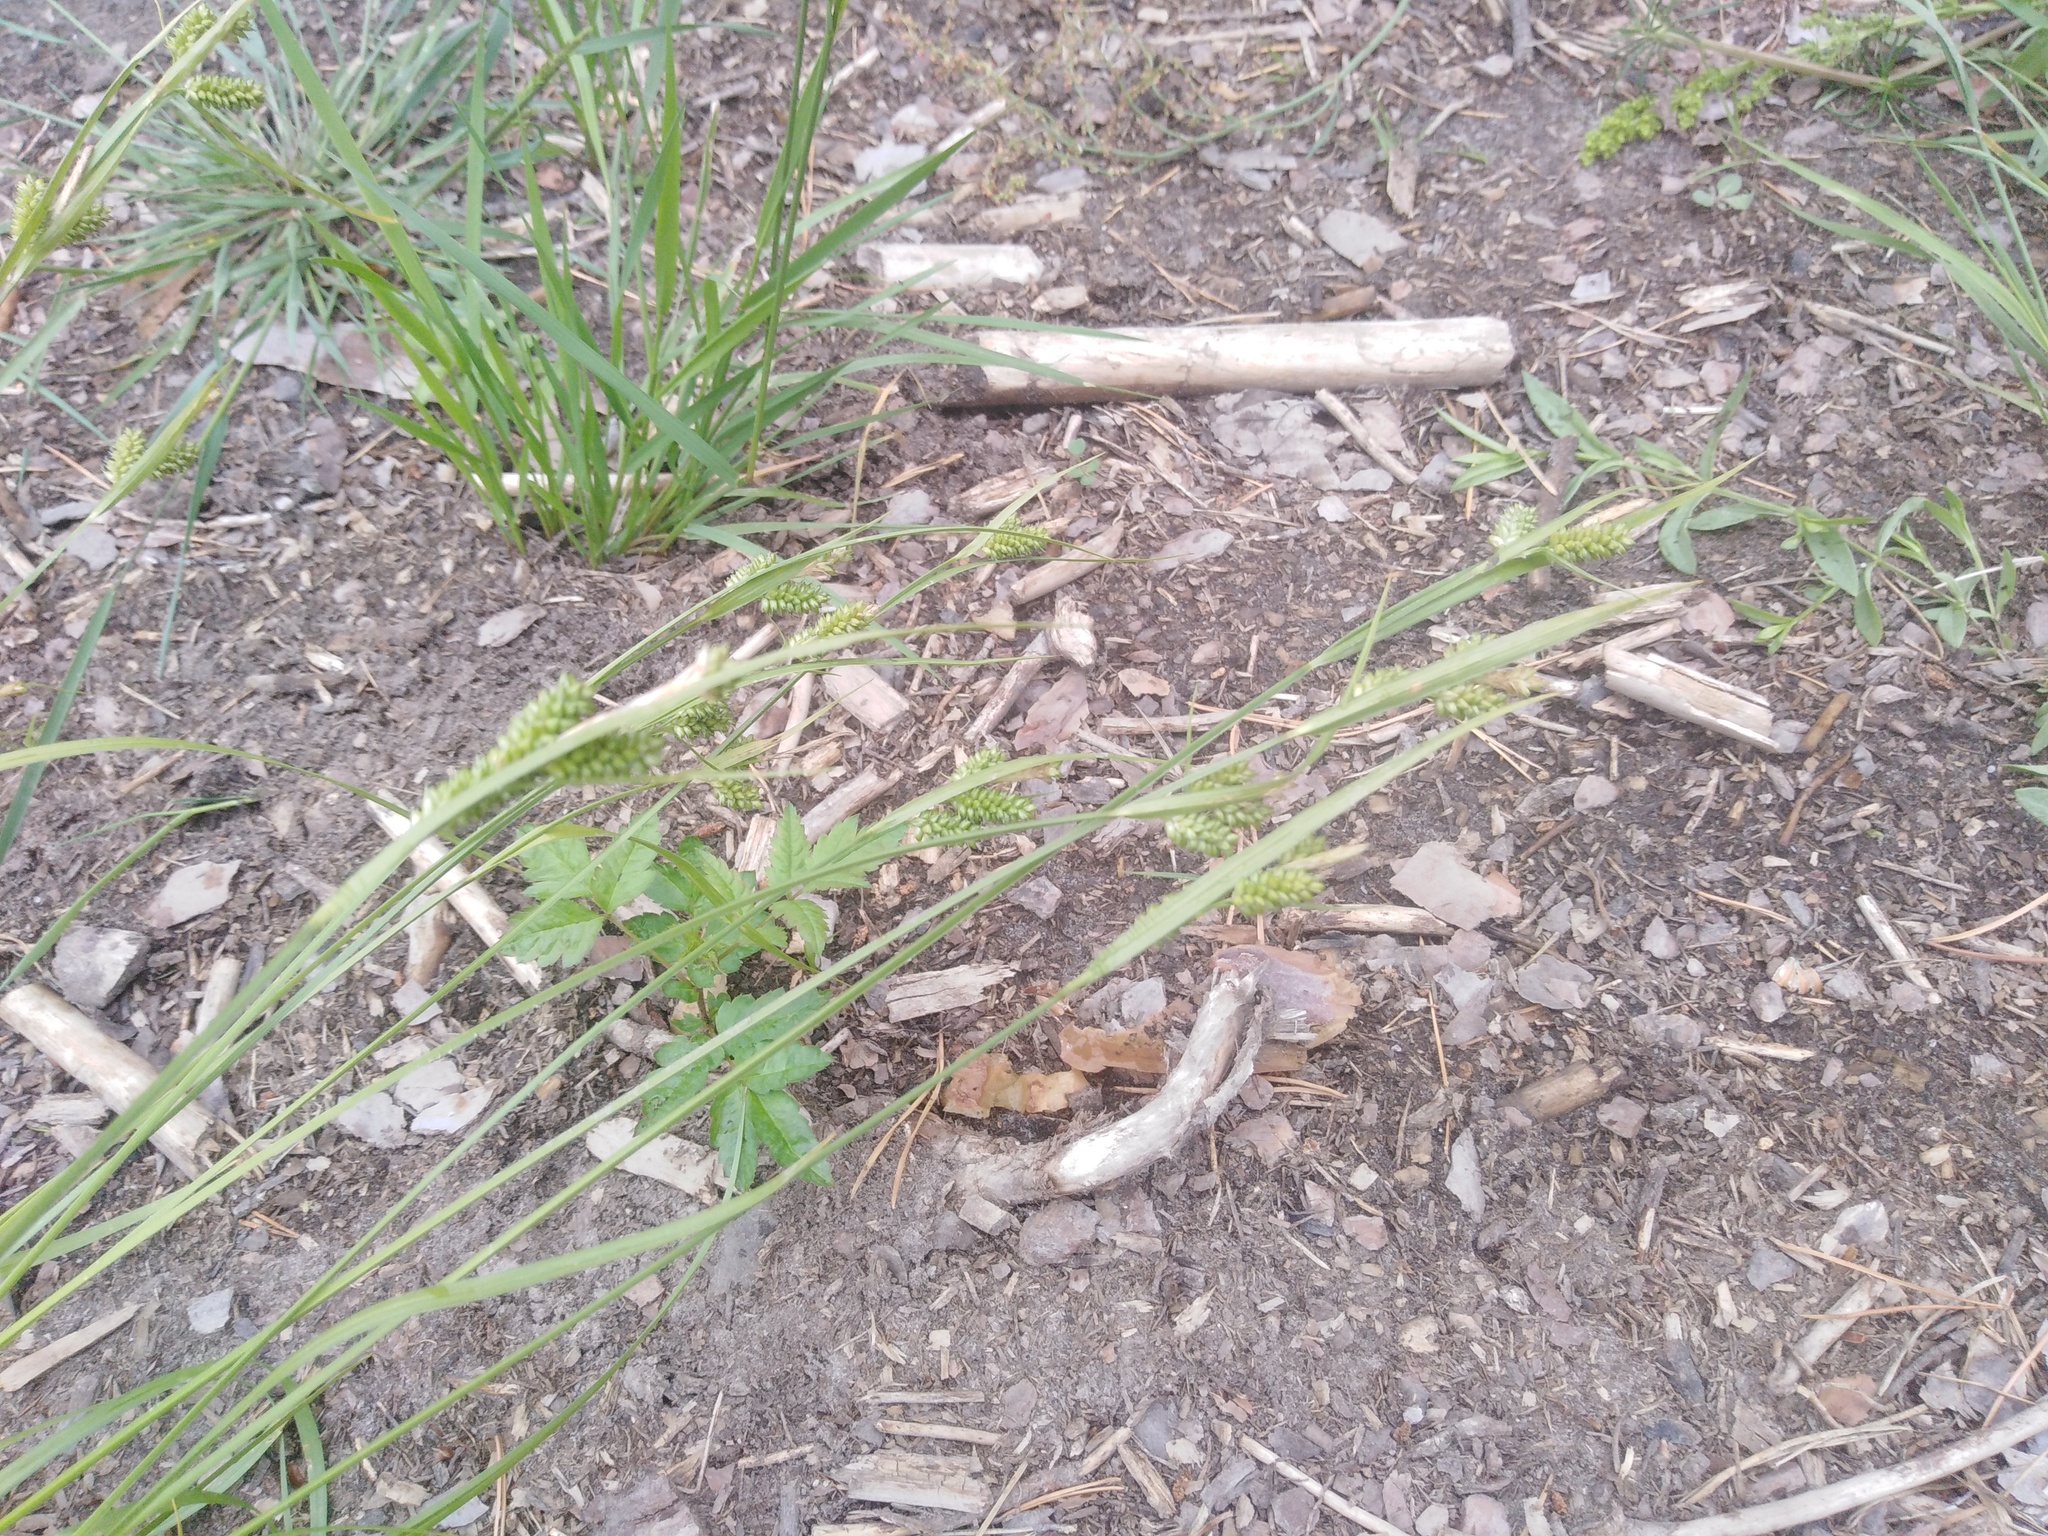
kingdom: Plantae
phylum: Tracheophyta
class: Liliopsida
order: Poales
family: Cyperaceae
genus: Carex
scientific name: Carex pallescens
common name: Pale sedge
